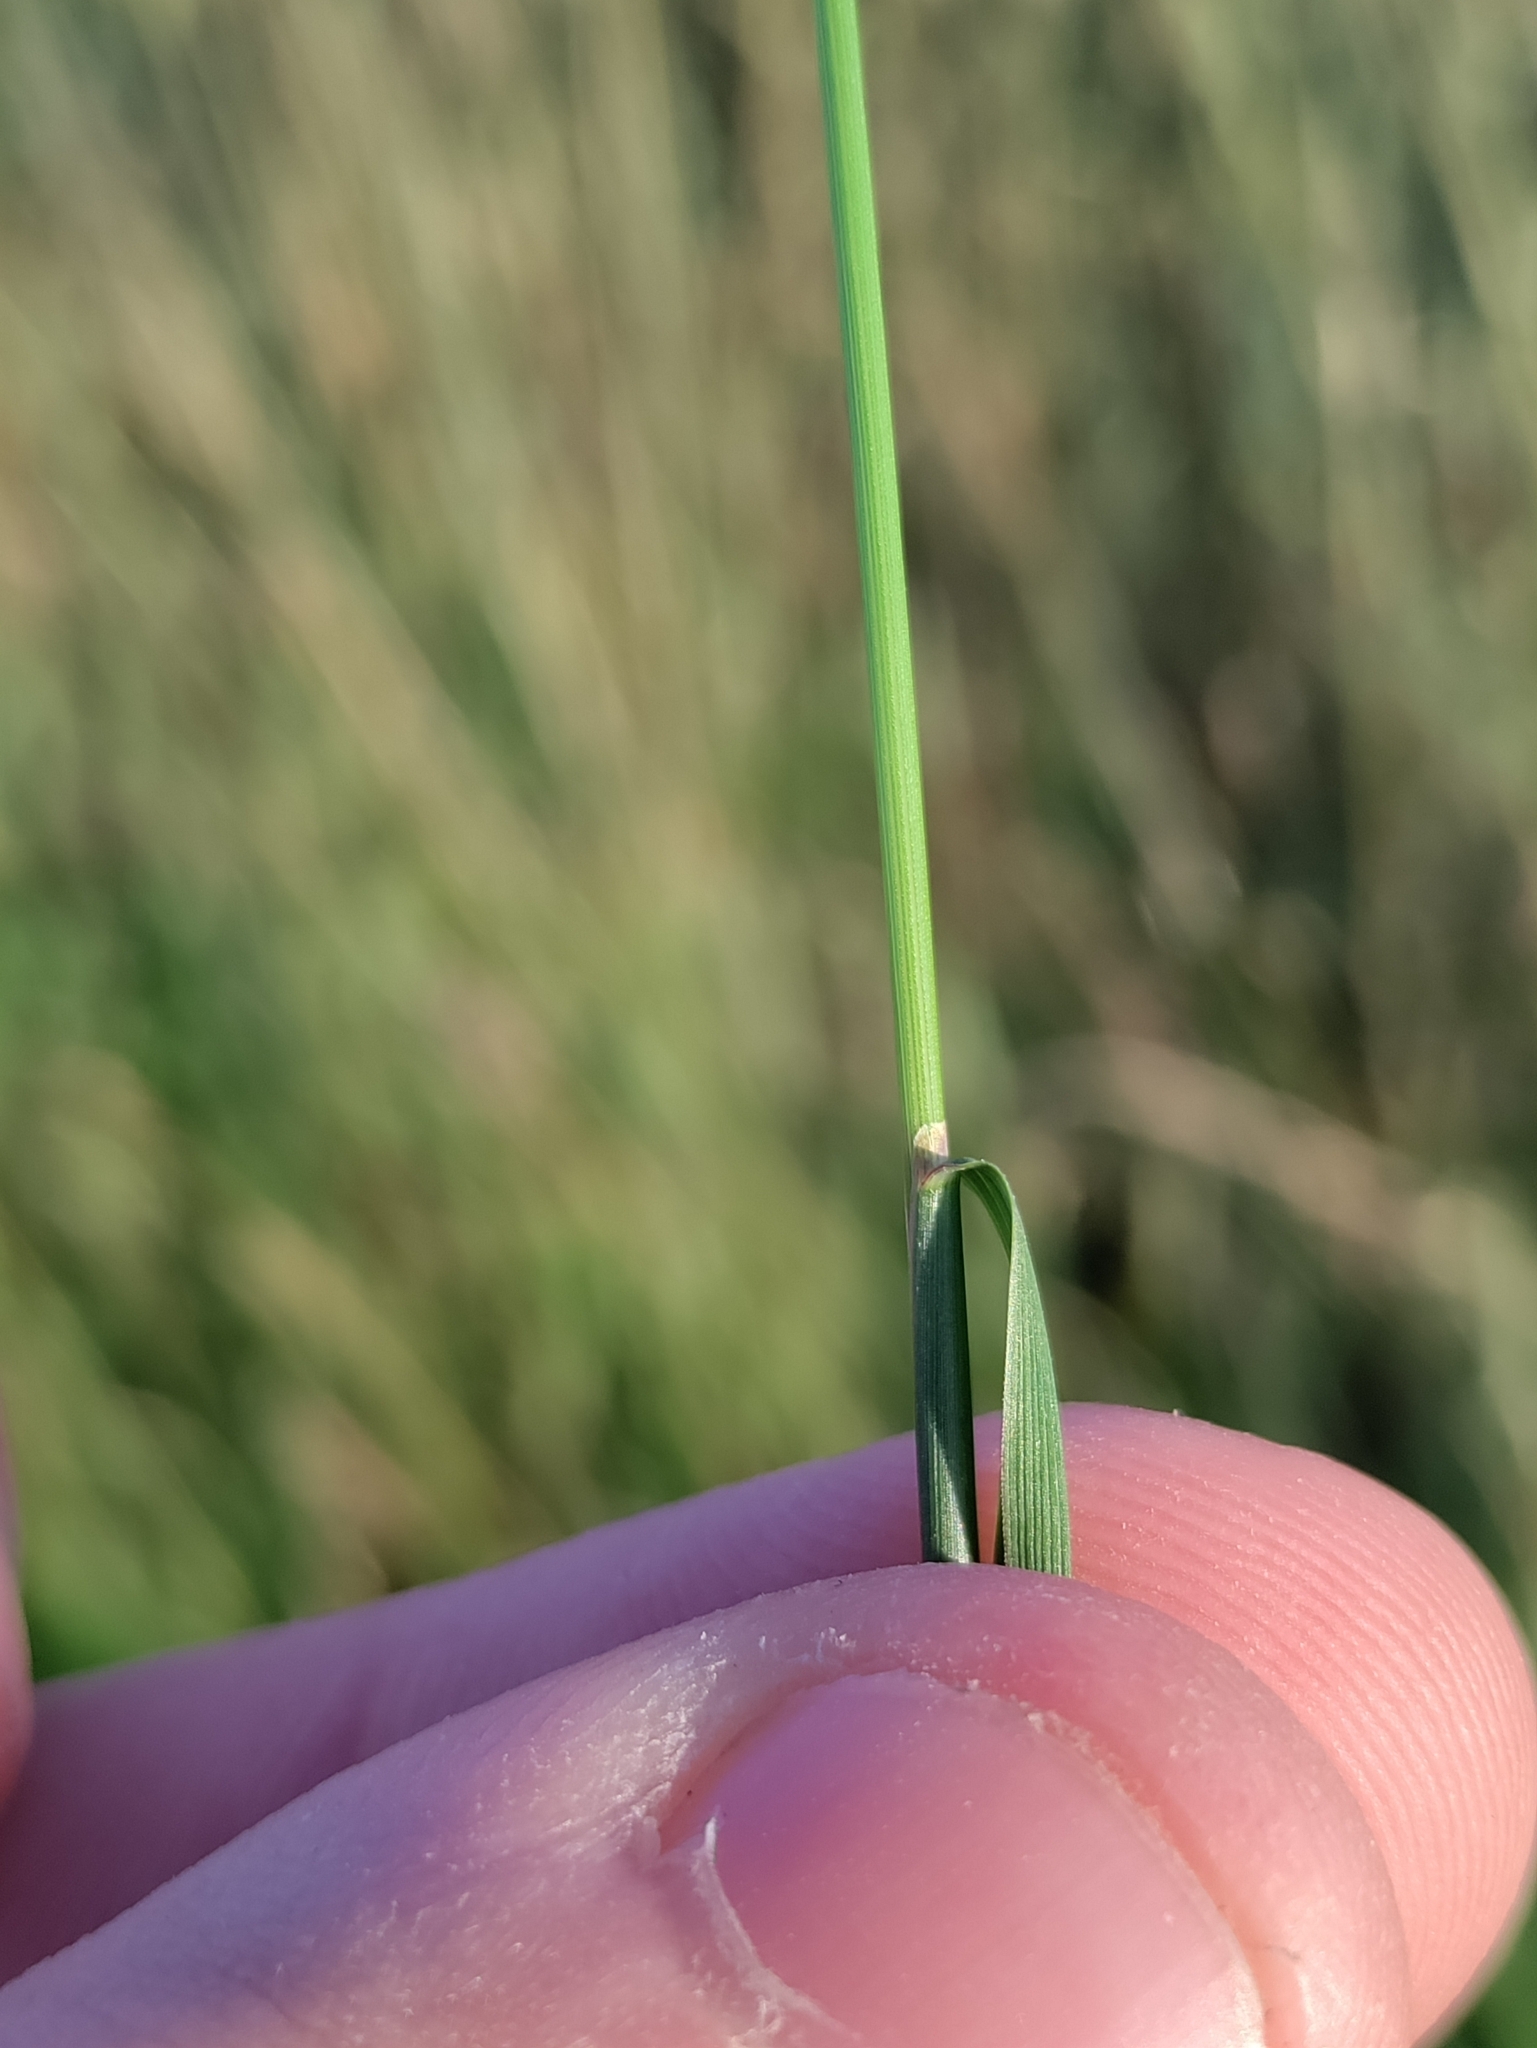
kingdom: Plantae
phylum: Tracheophyta
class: Liliopsida
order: Poales
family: Poaceae
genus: Agrostis
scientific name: Agrostis capillaris
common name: Colonial bentgrass
